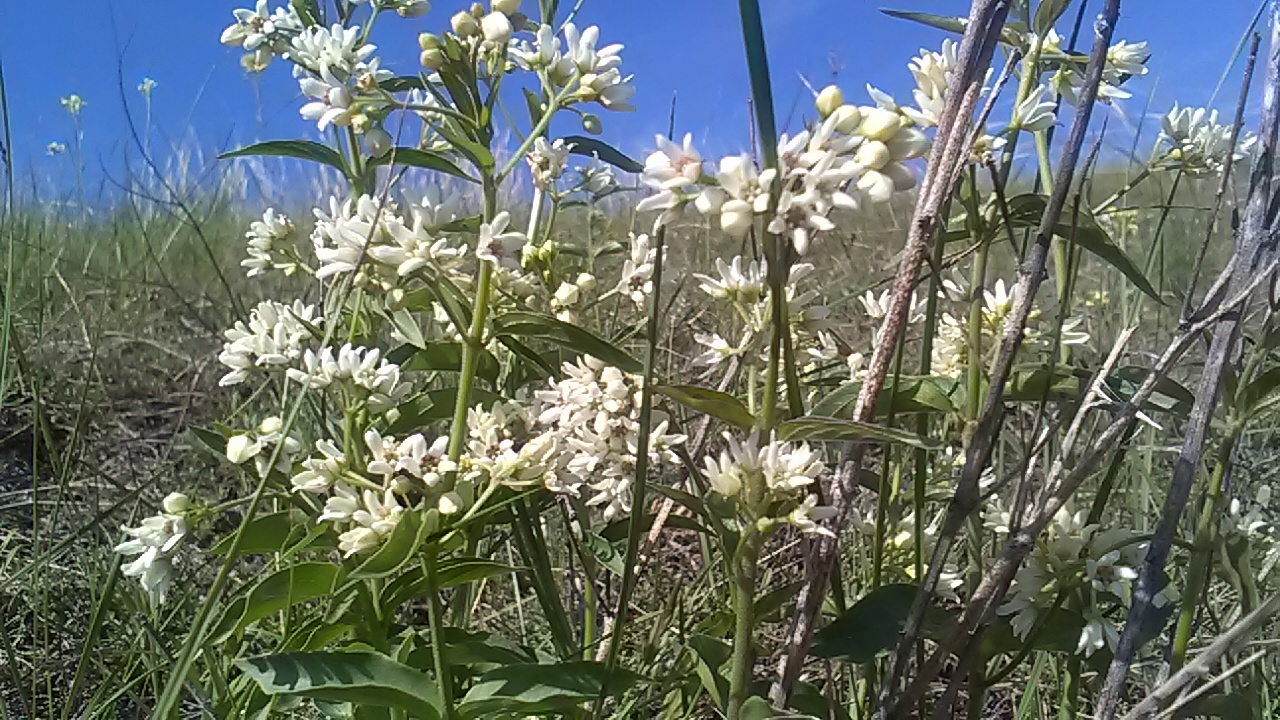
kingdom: Plantae
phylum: Tracheophyta
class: Magnoliopsida
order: Gentianales
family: Apocynaceae
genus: Vincetoxicum
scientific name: Vincetoxicum hirundinaria
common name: White swallowwort
